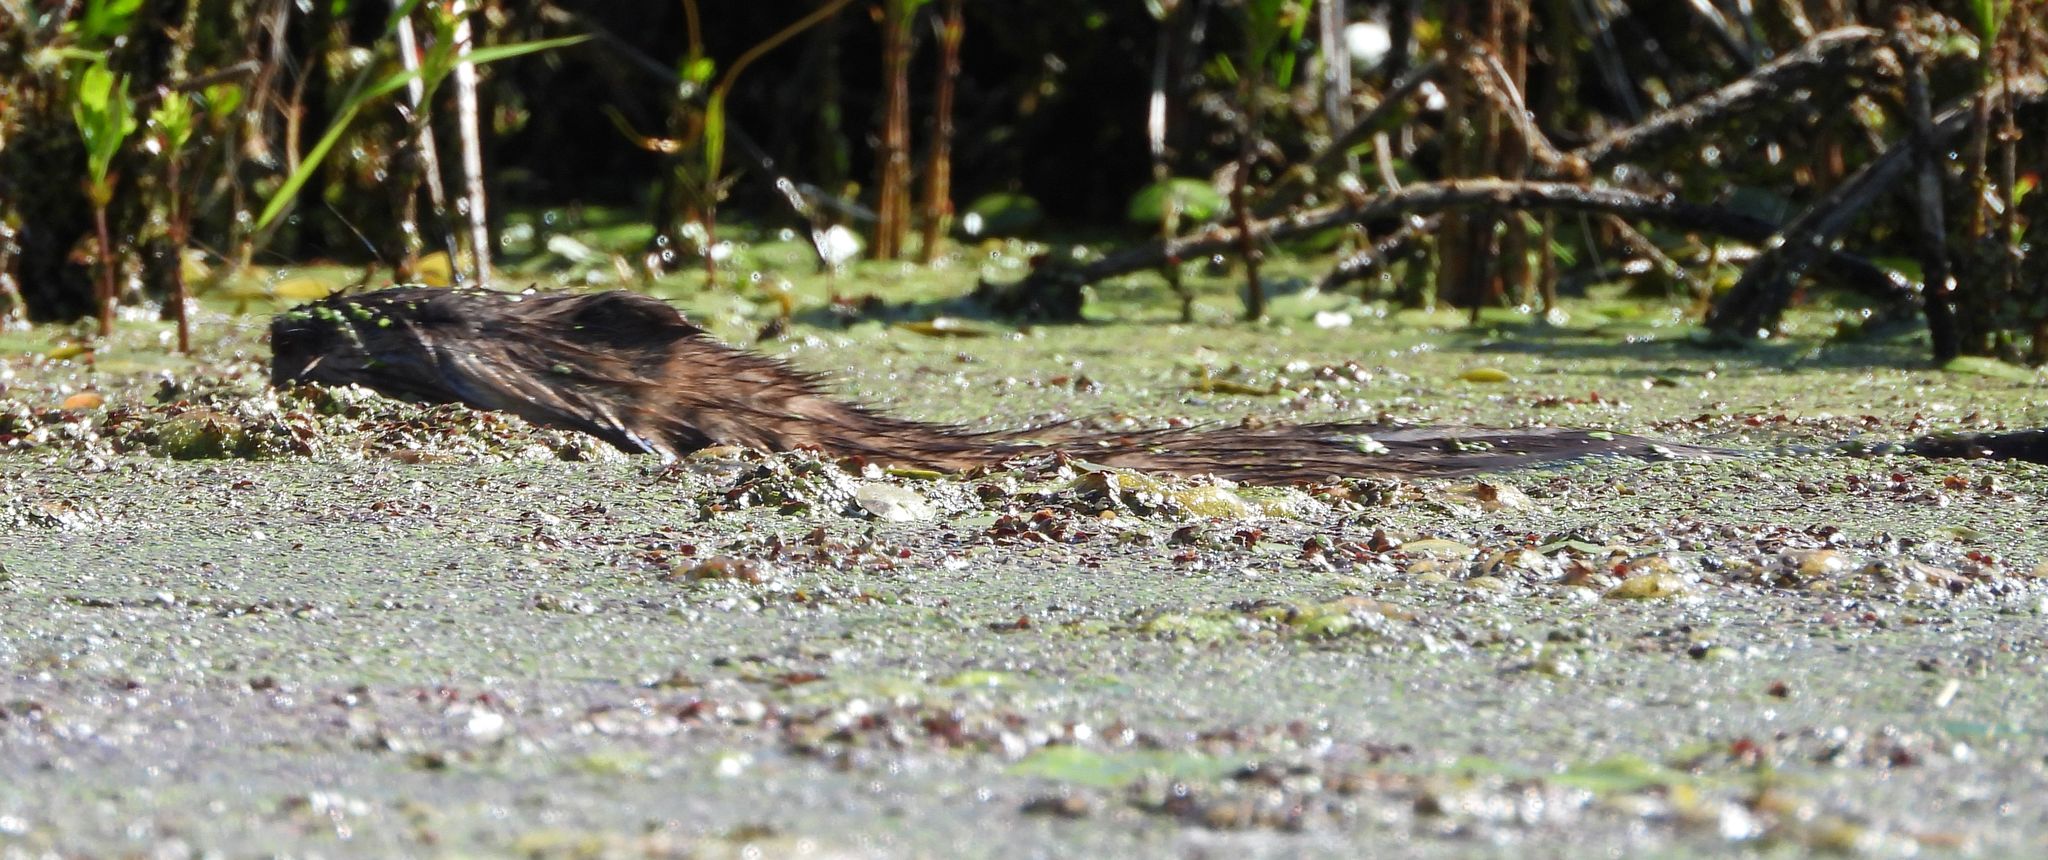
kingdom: Animalia
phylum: Chordata
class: Mammalia
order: Rodentia
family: Cricetidae
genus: Ondatra
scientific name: Ondatra zibethicus
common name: Muskrat
